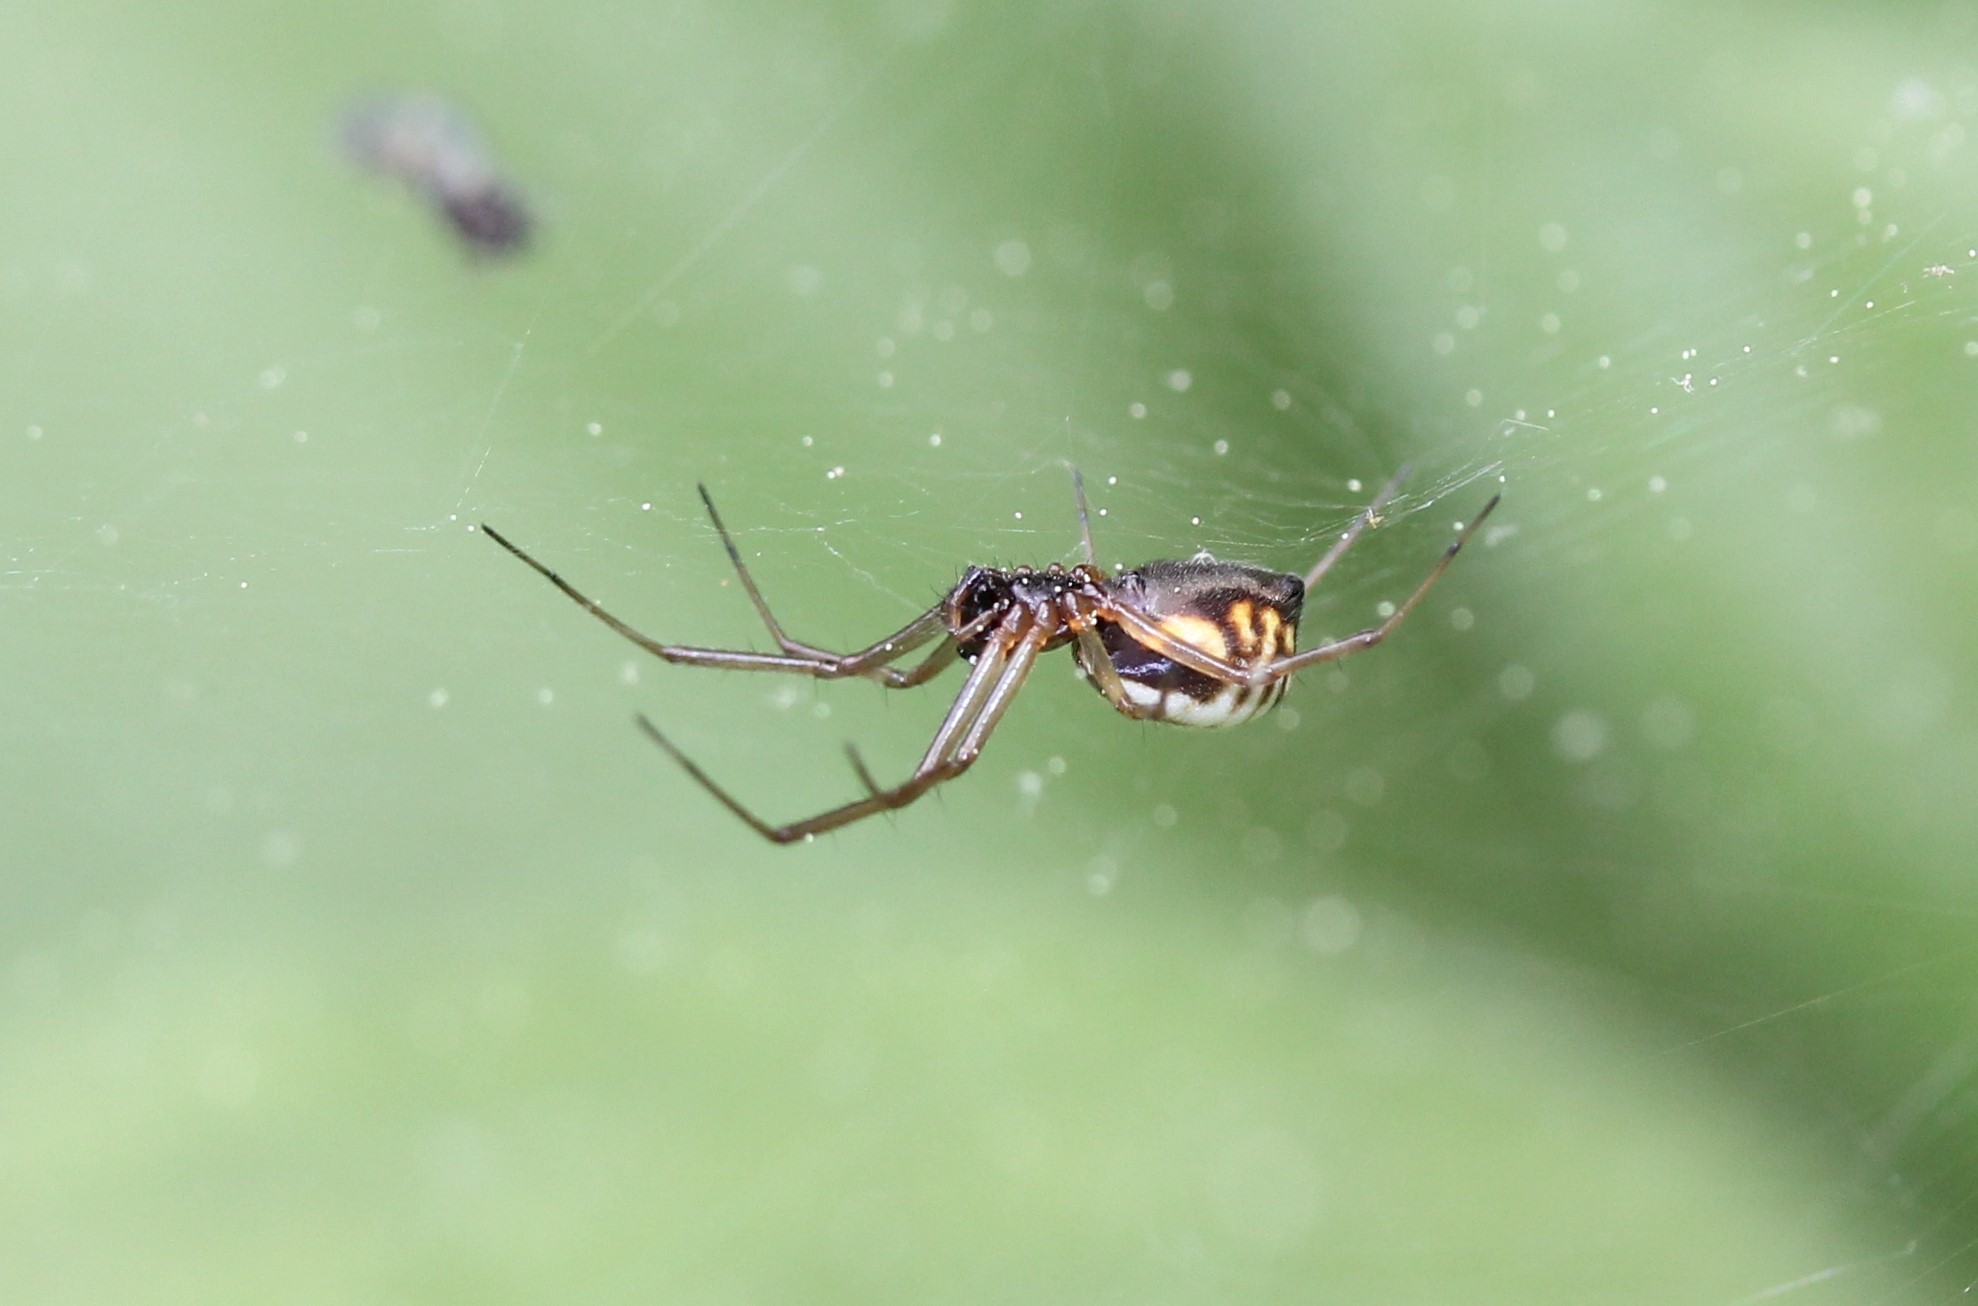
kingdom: Animalia
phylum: Arthropoda
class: Arachnida
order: Araneae
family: Linyphiidae
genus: Frontinella
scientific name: Frontinella pyramitela
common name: Bowl-and-doily spider
